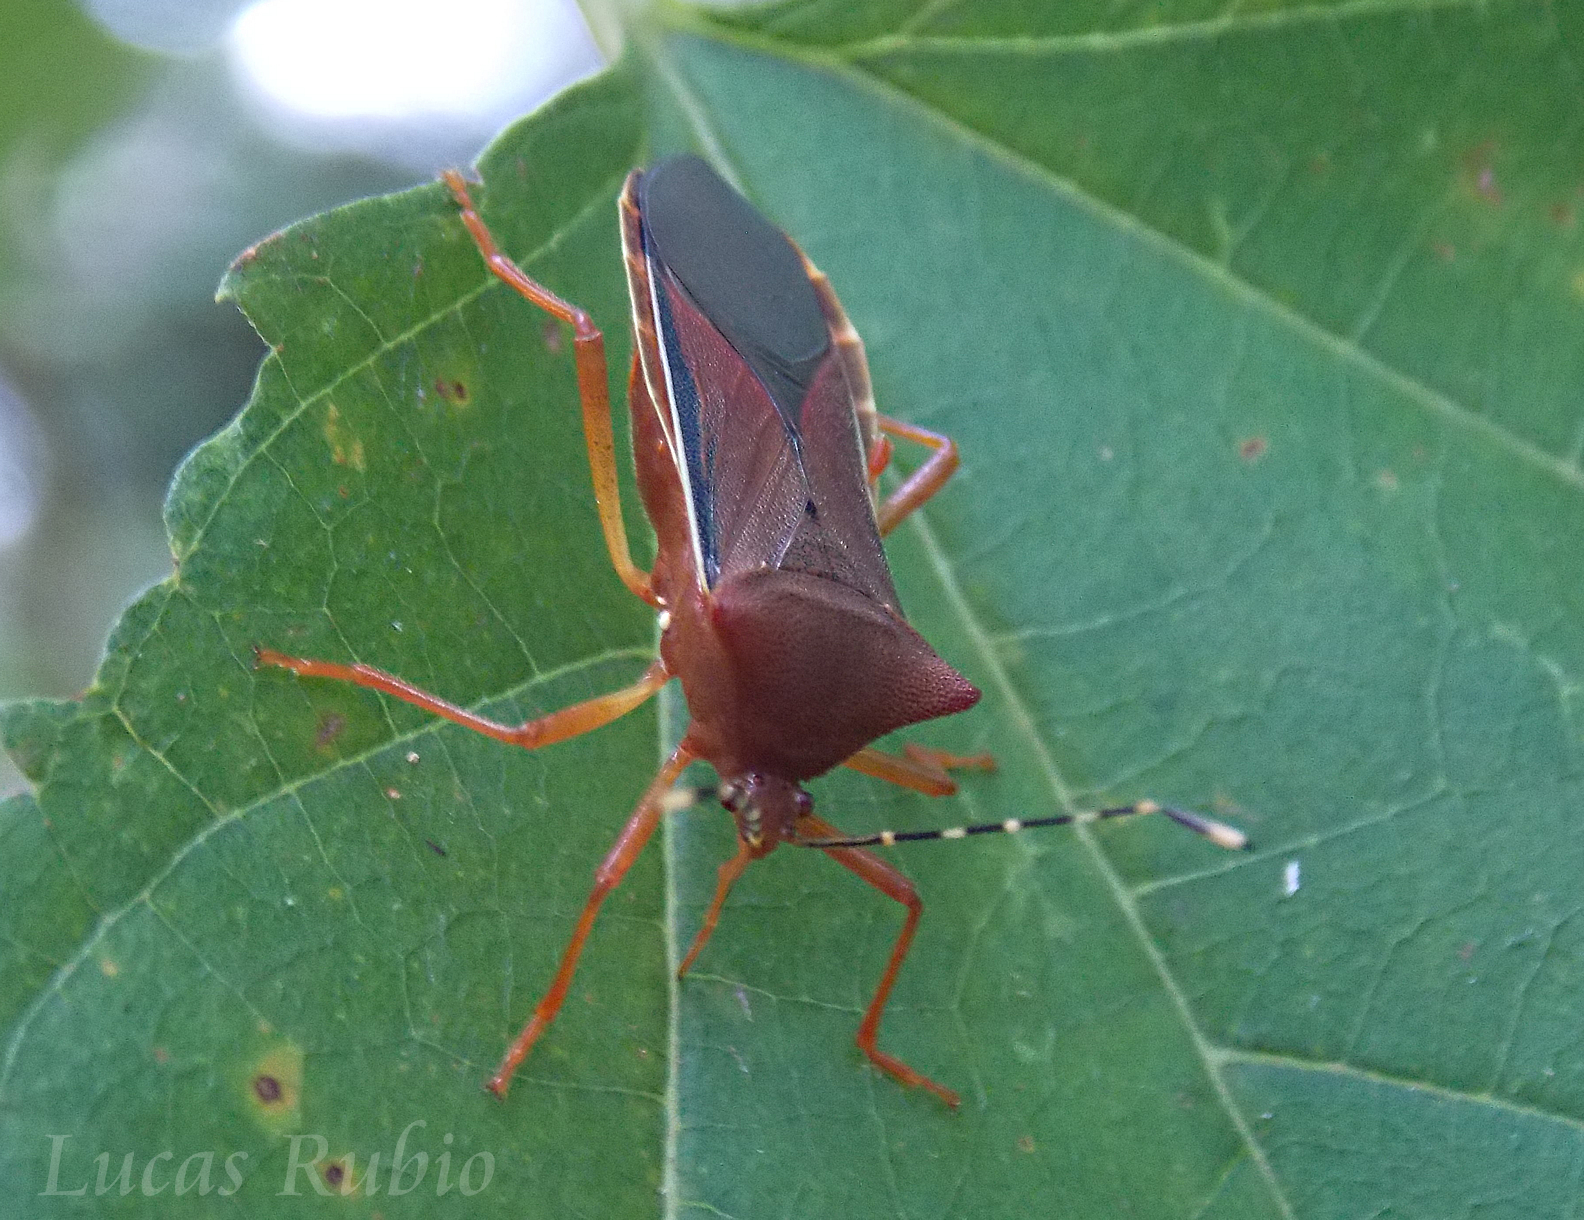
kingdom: Animalia
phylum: Arthropoda
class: Insecta
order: Hemiptera
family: Coreidae
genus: Anasa
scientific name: Anasa varicornis
